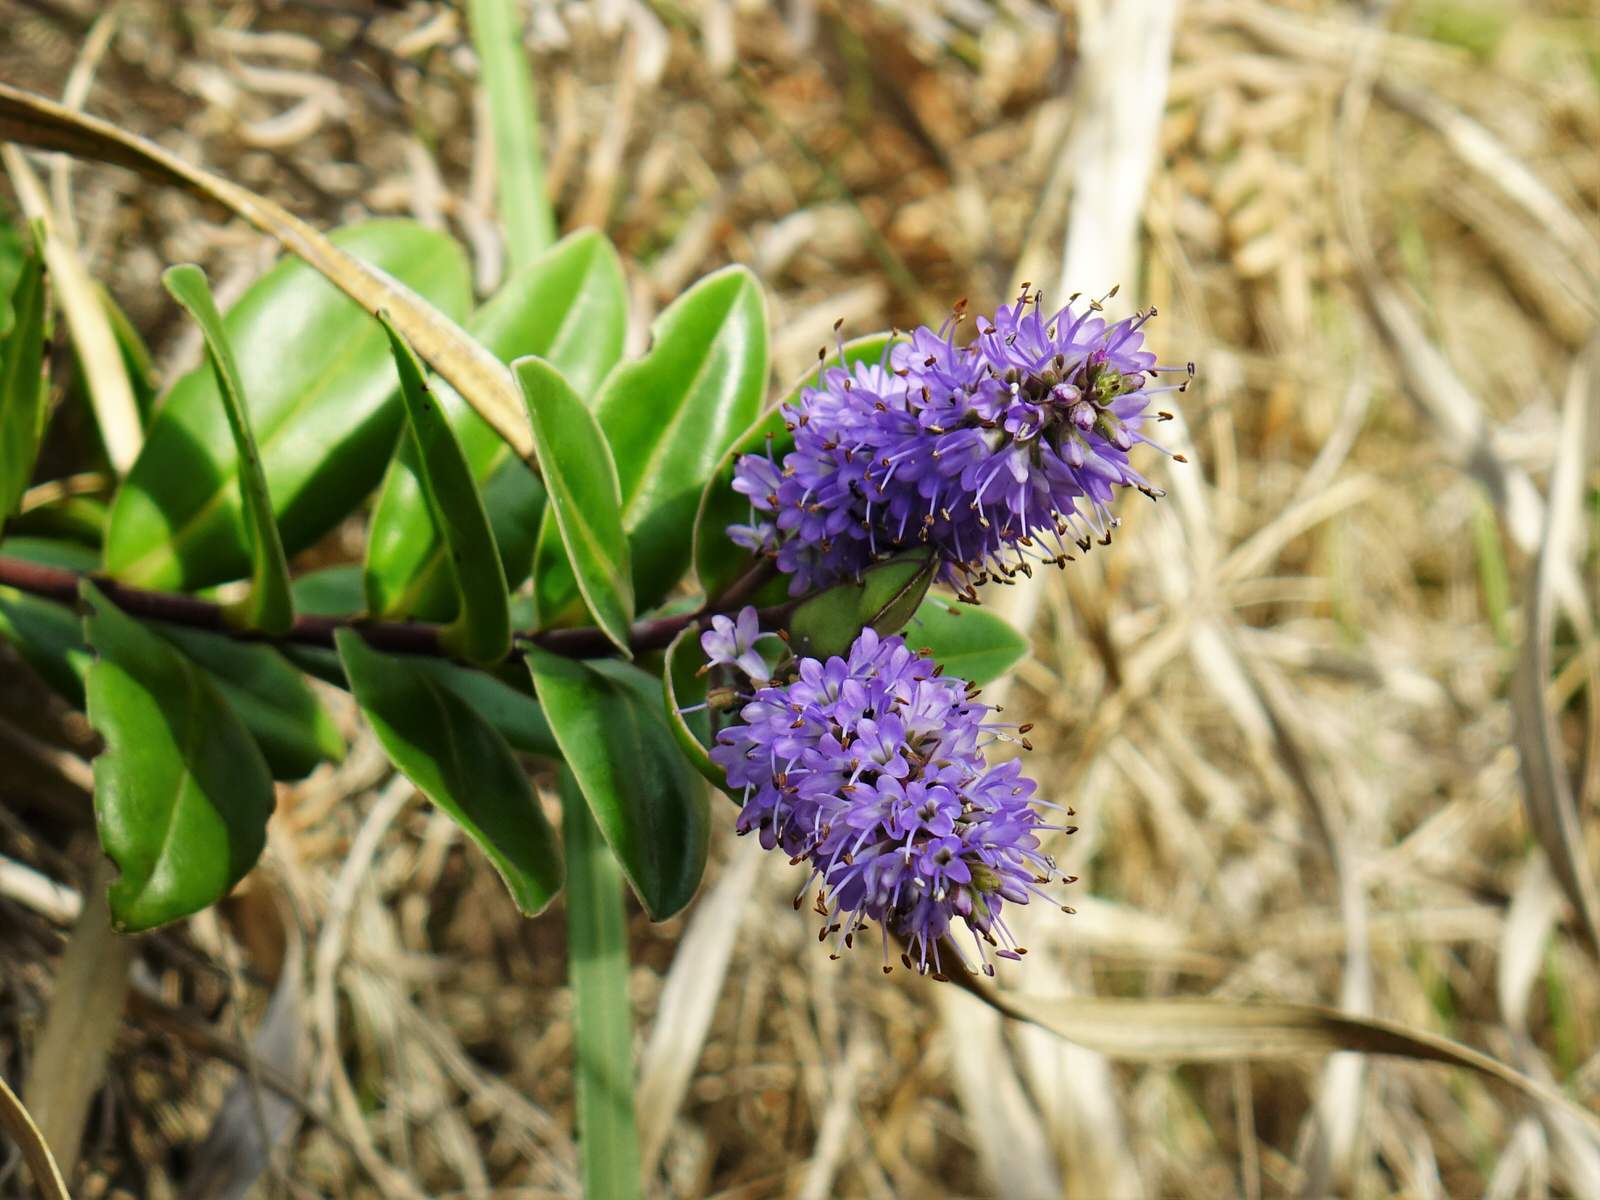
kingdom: Plantae
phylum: Tracheophyta
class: Magnoliopsida
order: Lamiales
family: Plantaginaceae
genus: Veronica
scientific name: Veronica obtusata
